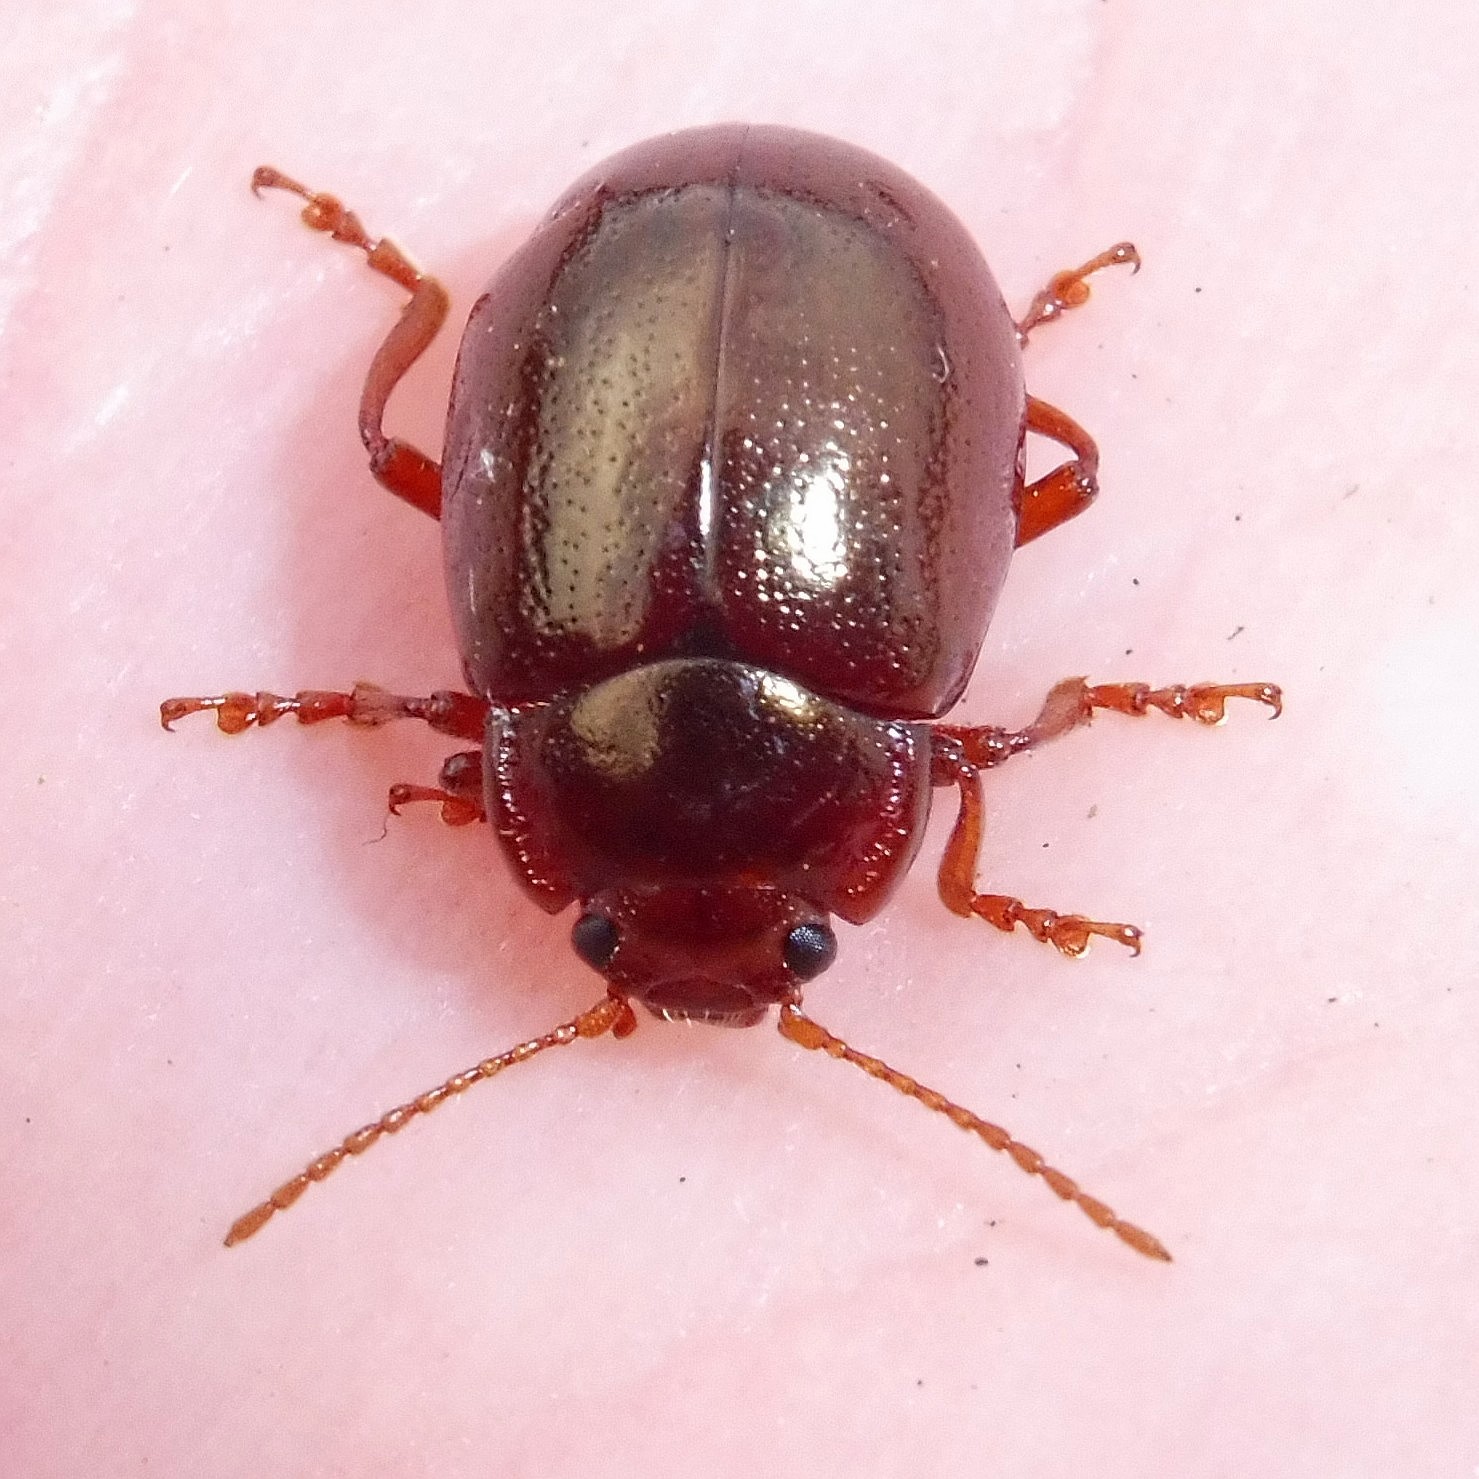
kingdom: Animalia
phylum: Arthropoda
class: Insecta
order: Coleoptera
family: Chrysomelidae
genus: Chrysolina
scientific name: Chrysolina staphylaea
